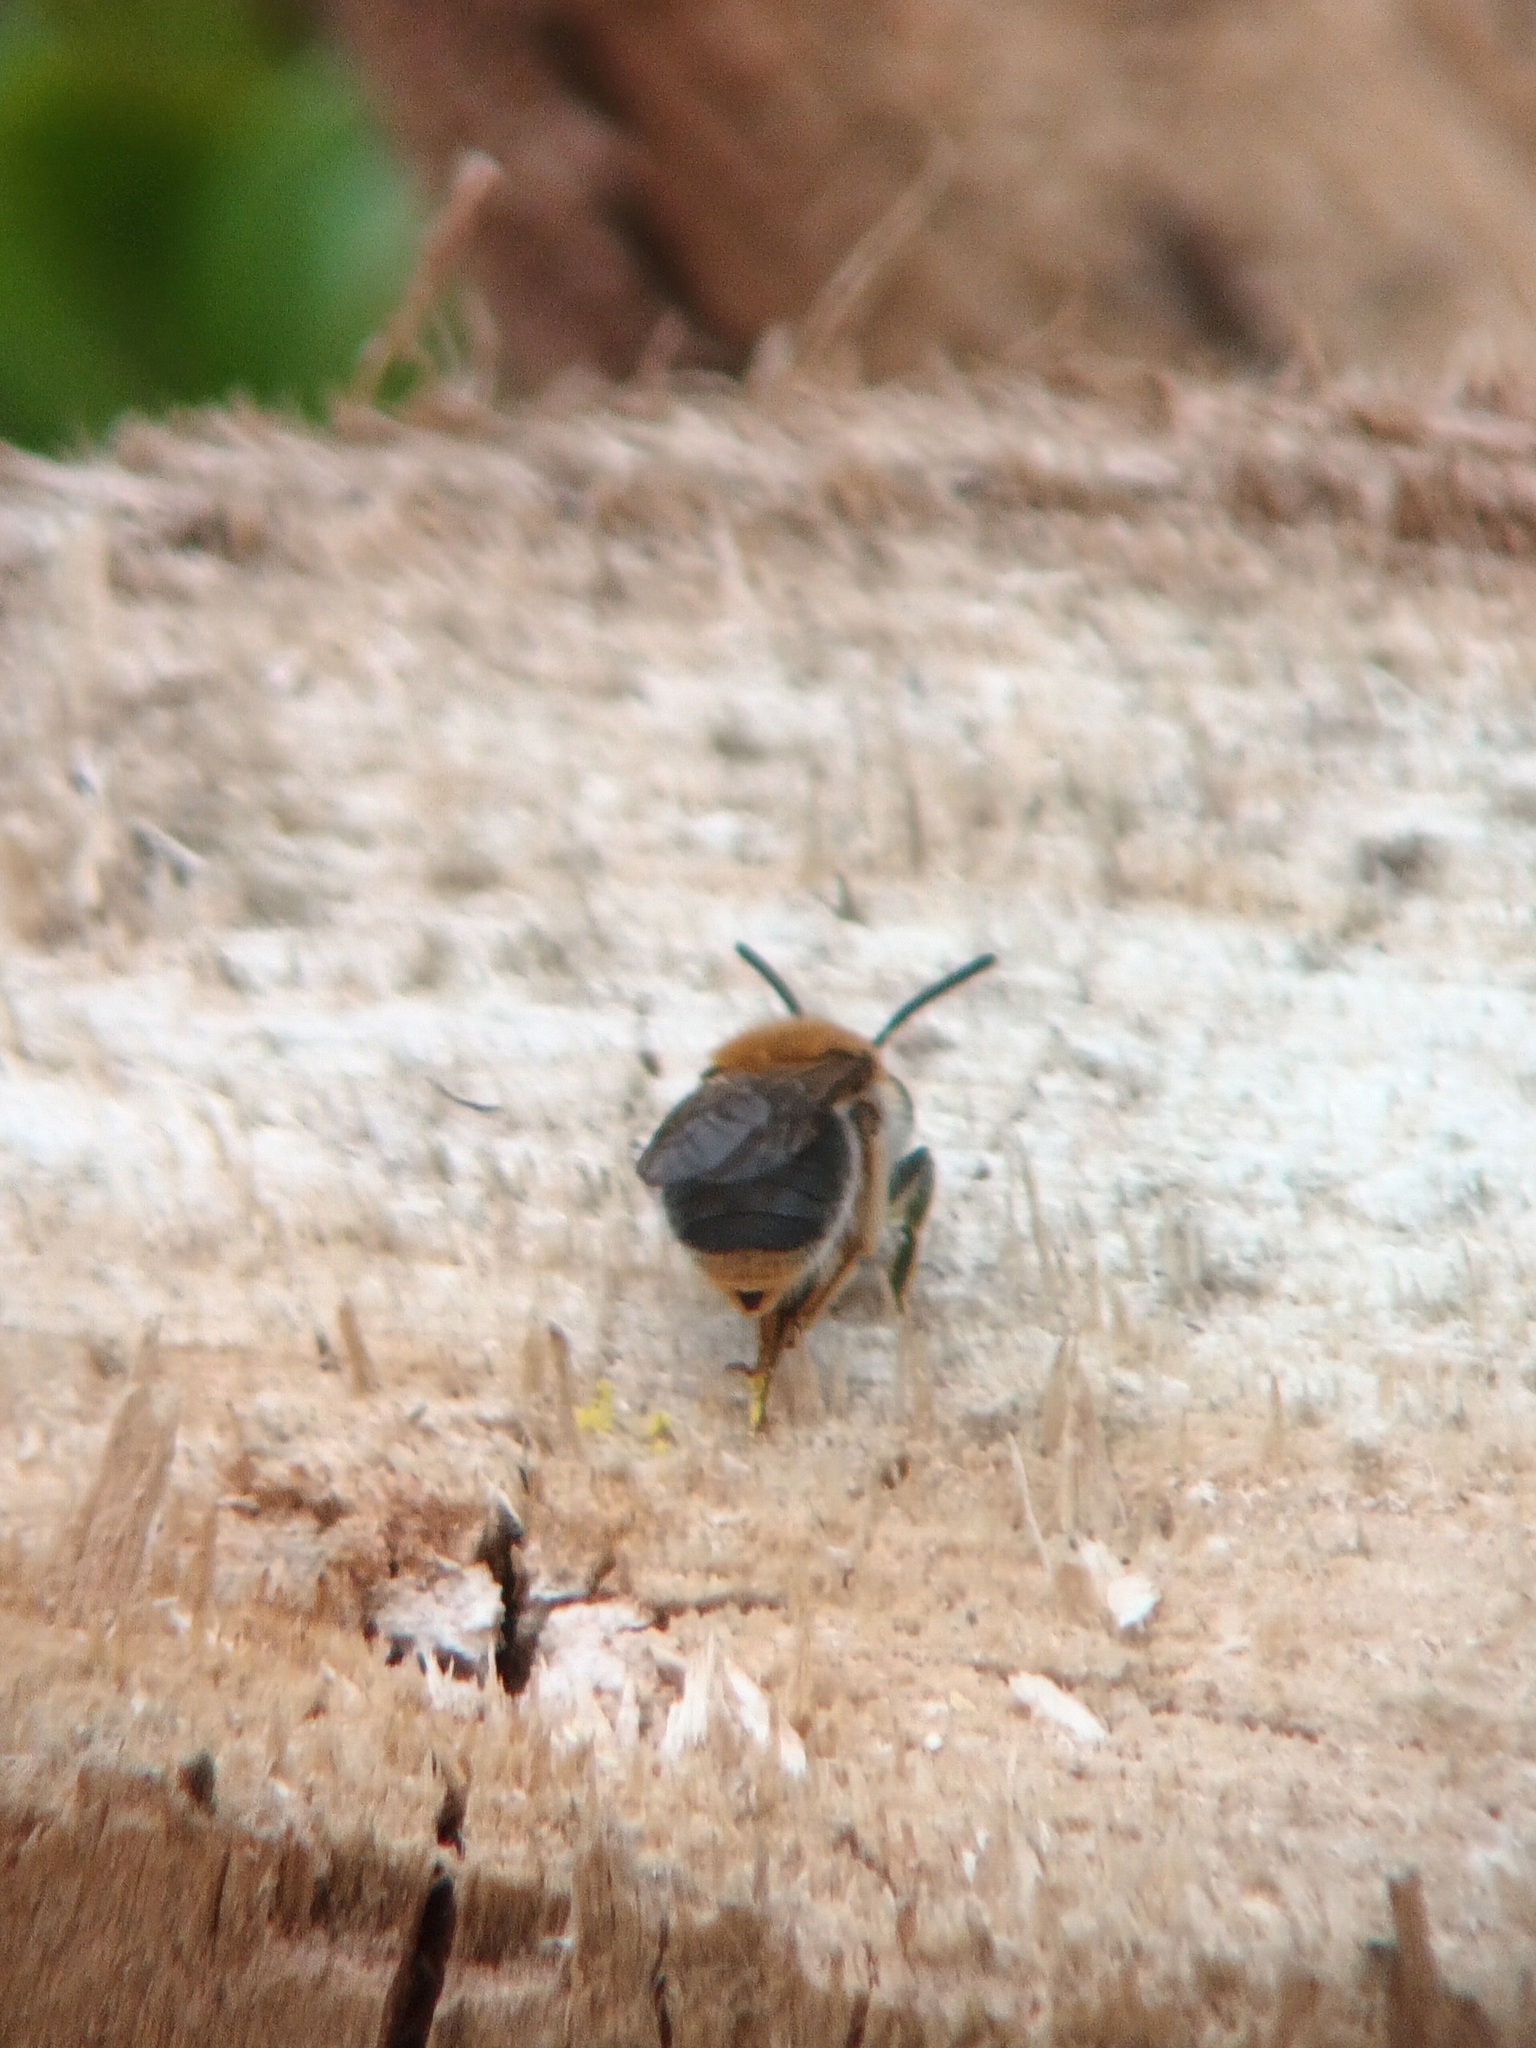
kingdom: Animalia
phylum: Arthropoda
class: Insecta
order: Hymenoptera
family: Andrenidae
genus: Andrena
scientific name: Andrena haemorrhoa
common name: Early mining bee
